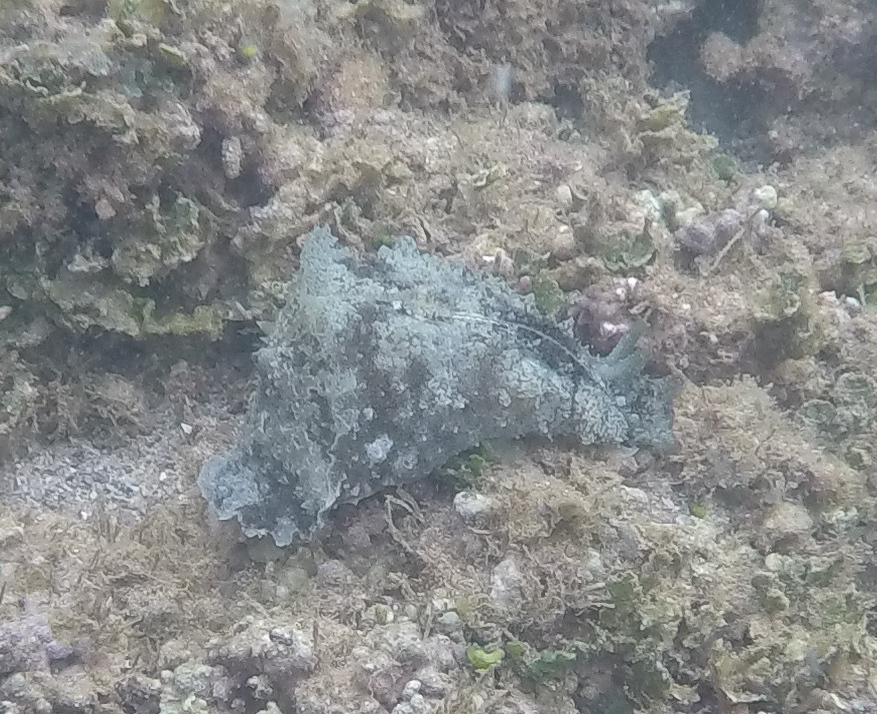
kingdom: Animalia
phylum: Mollusca
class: Gastropoda
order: Aplysiida
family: Aplysiidae
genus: Dolabella
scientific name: Dolabella auricularia
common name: Blunt-end seahare
